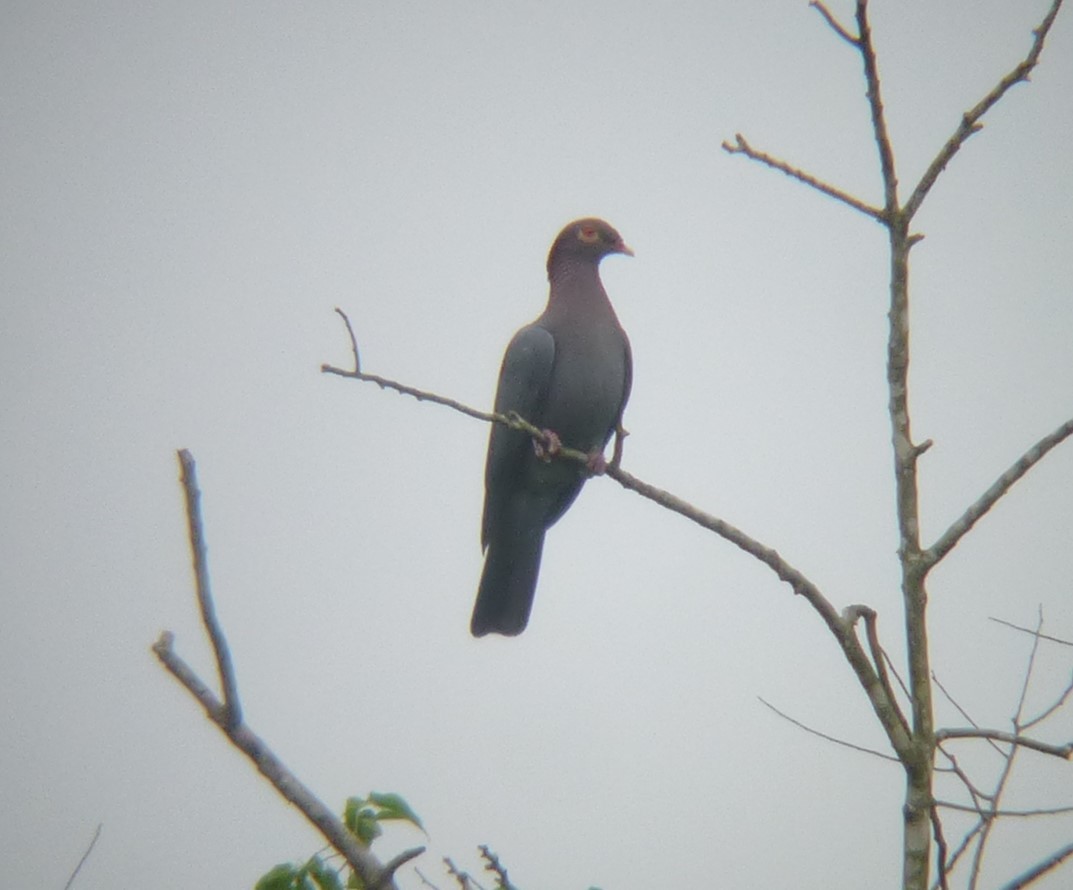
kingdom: Animalia
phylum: Chordata
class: Aves
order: Columbiformes
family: Columbidae
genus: Patagioenas
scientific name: Patagioenas squamosa
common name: Scaly-naped pigeon
